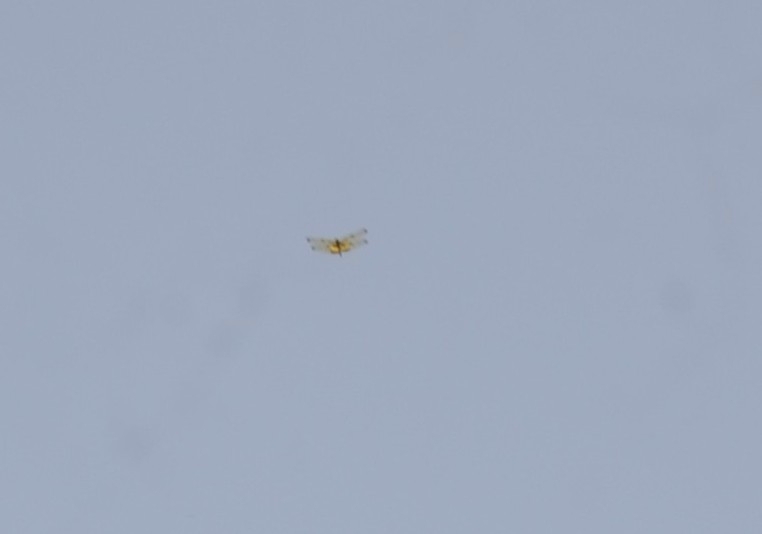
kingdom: Animalia
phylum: Arthropoda
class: Insecta
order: Odonata
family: Libellulidae
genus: Rhyothemis
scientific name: Rhyothemis variegata
